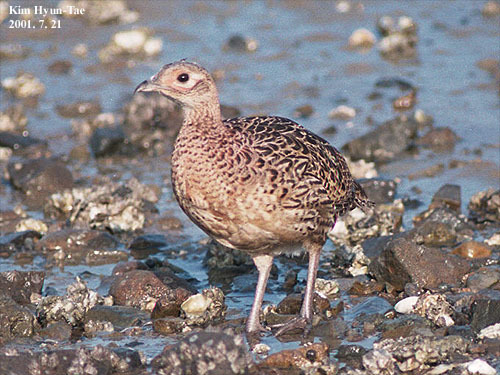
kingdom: Animalia
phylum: Chordata
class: Aves
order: Galliformes
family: Phasianidae
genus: Phasianus
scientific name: Phasianus colchicus
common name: Common pheasant
